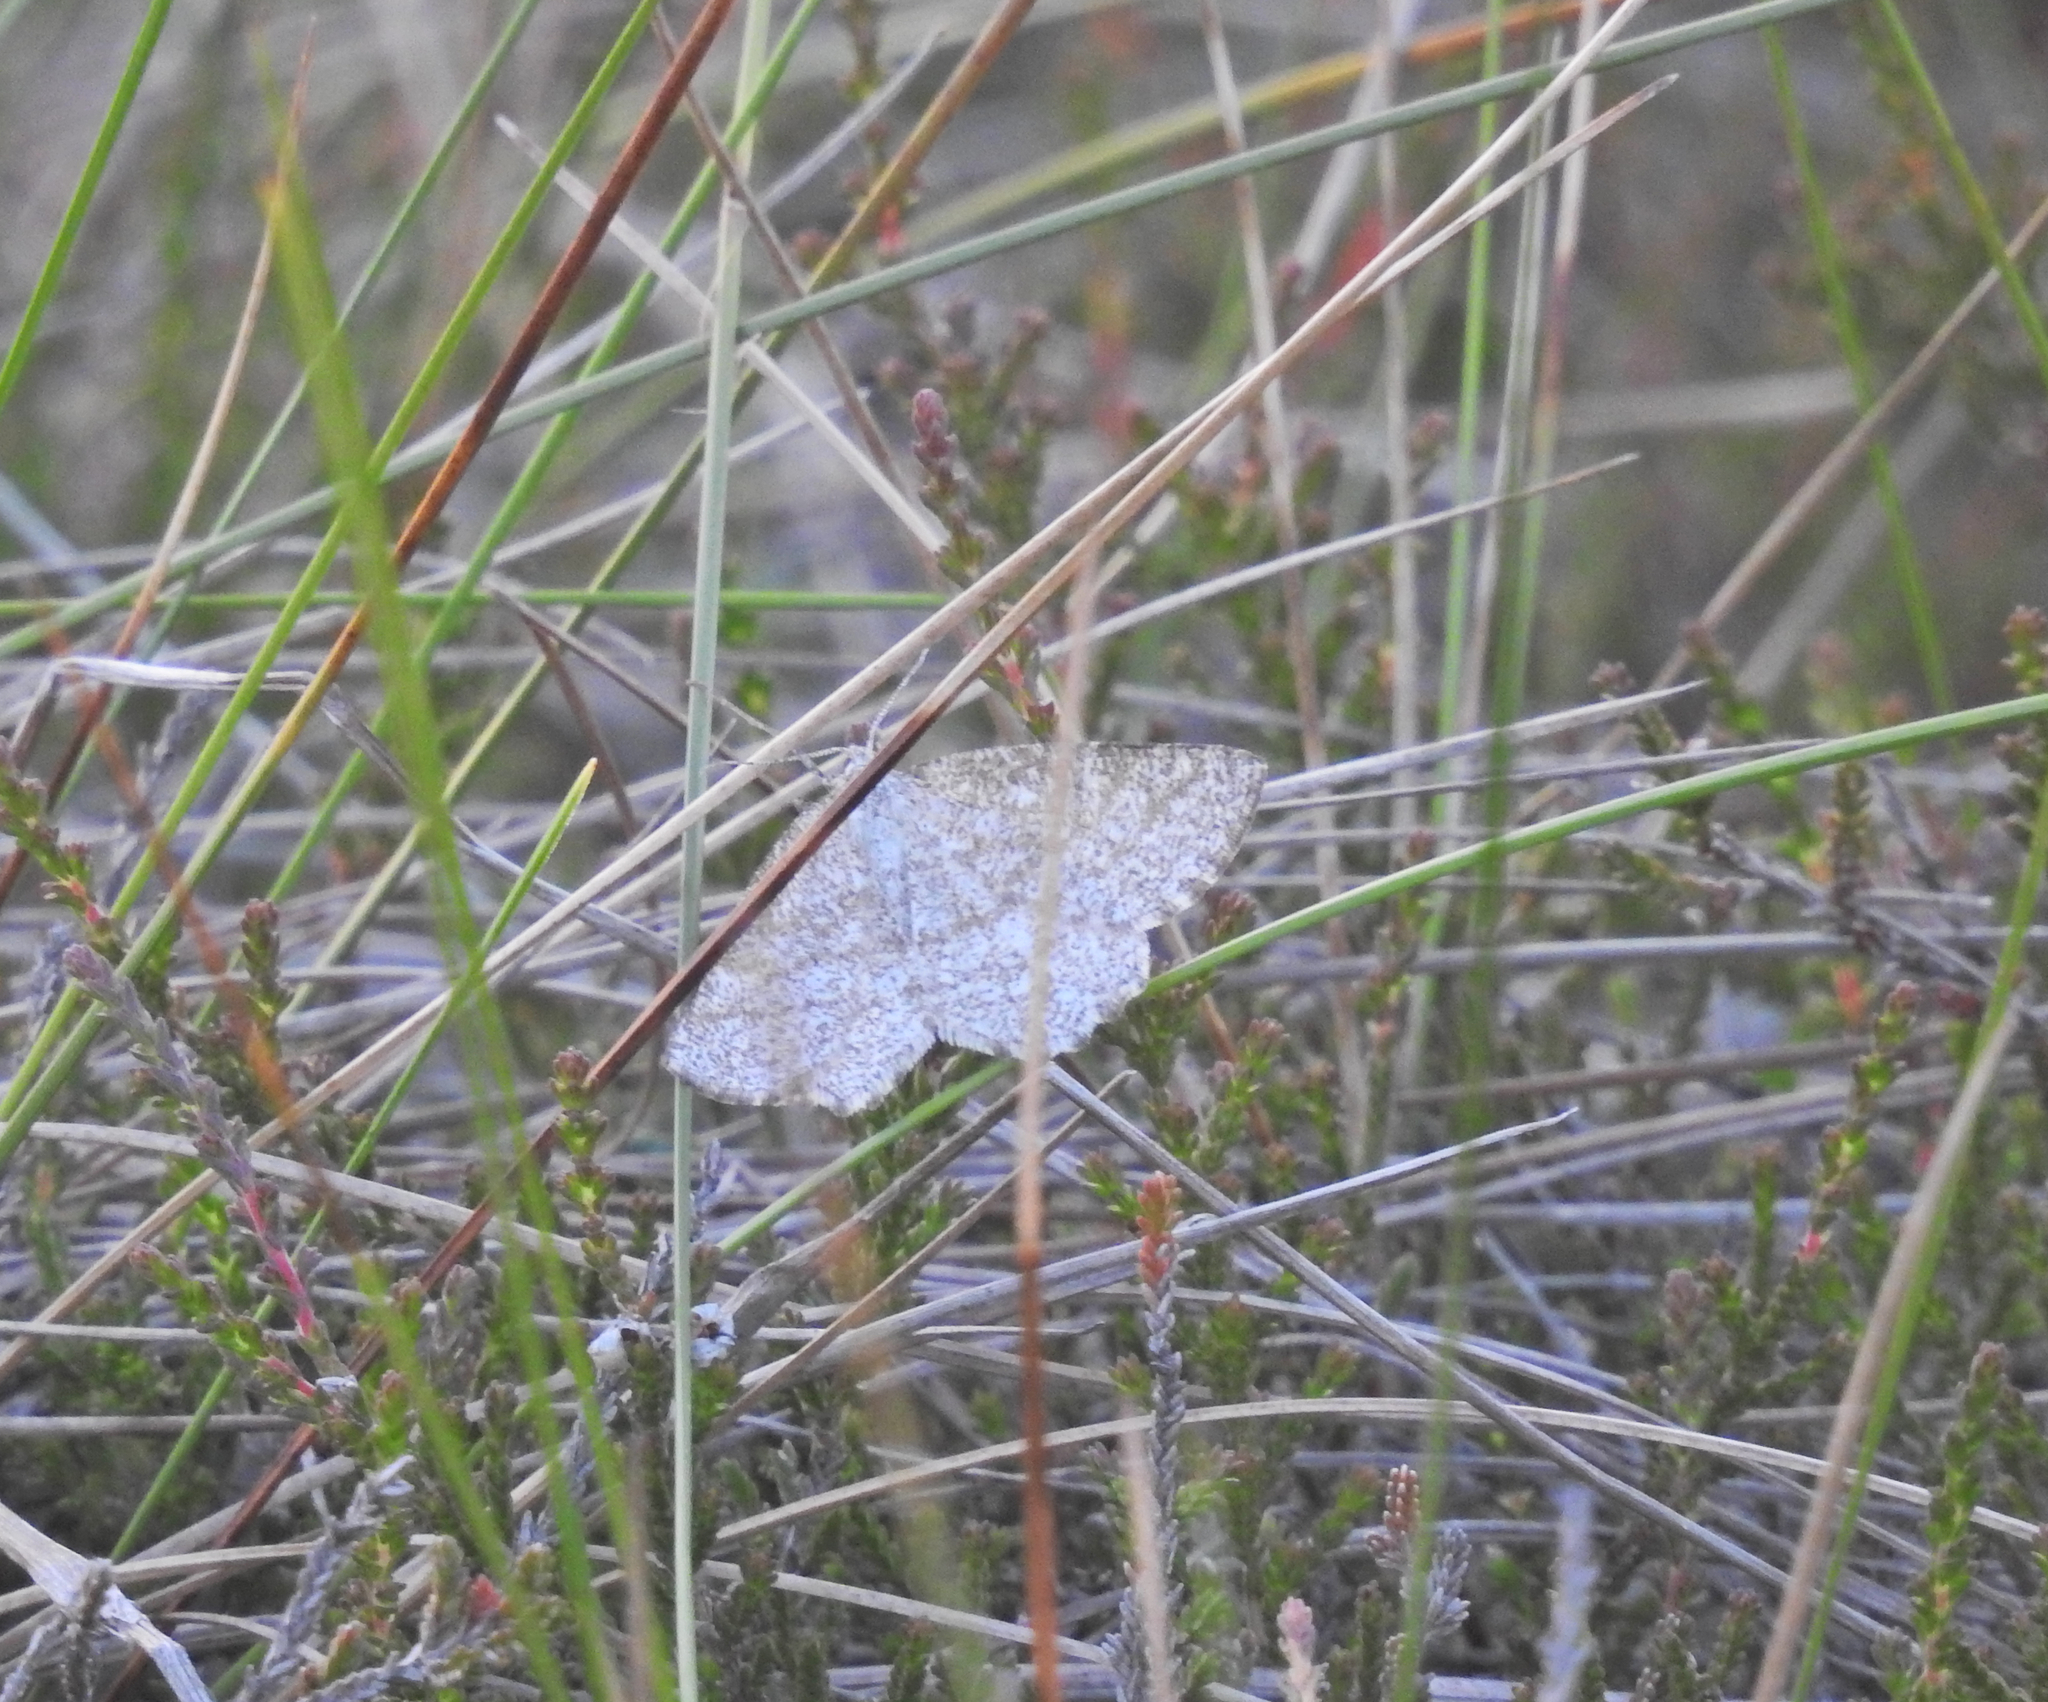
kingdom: Animalia
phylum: Arthropoda
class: Insecta
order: Lepidoptera
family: Geometridae
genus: Perconia
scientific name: Perconia strigillaria
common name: Grass wave
